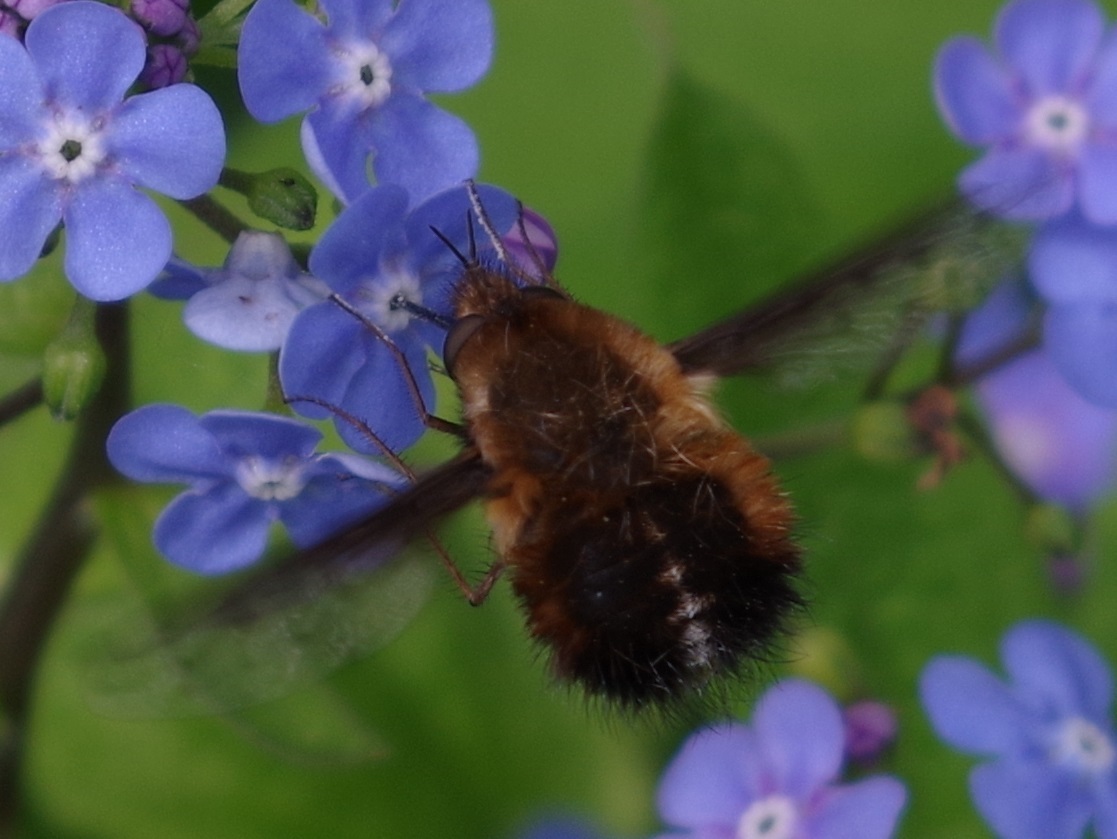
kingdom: Animalia
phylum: Arthropoda
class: Insecta
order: Diptera
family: Bombyliidae
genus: Bombylius
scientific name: Bombylius discolor
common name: Dotted bee-fly
